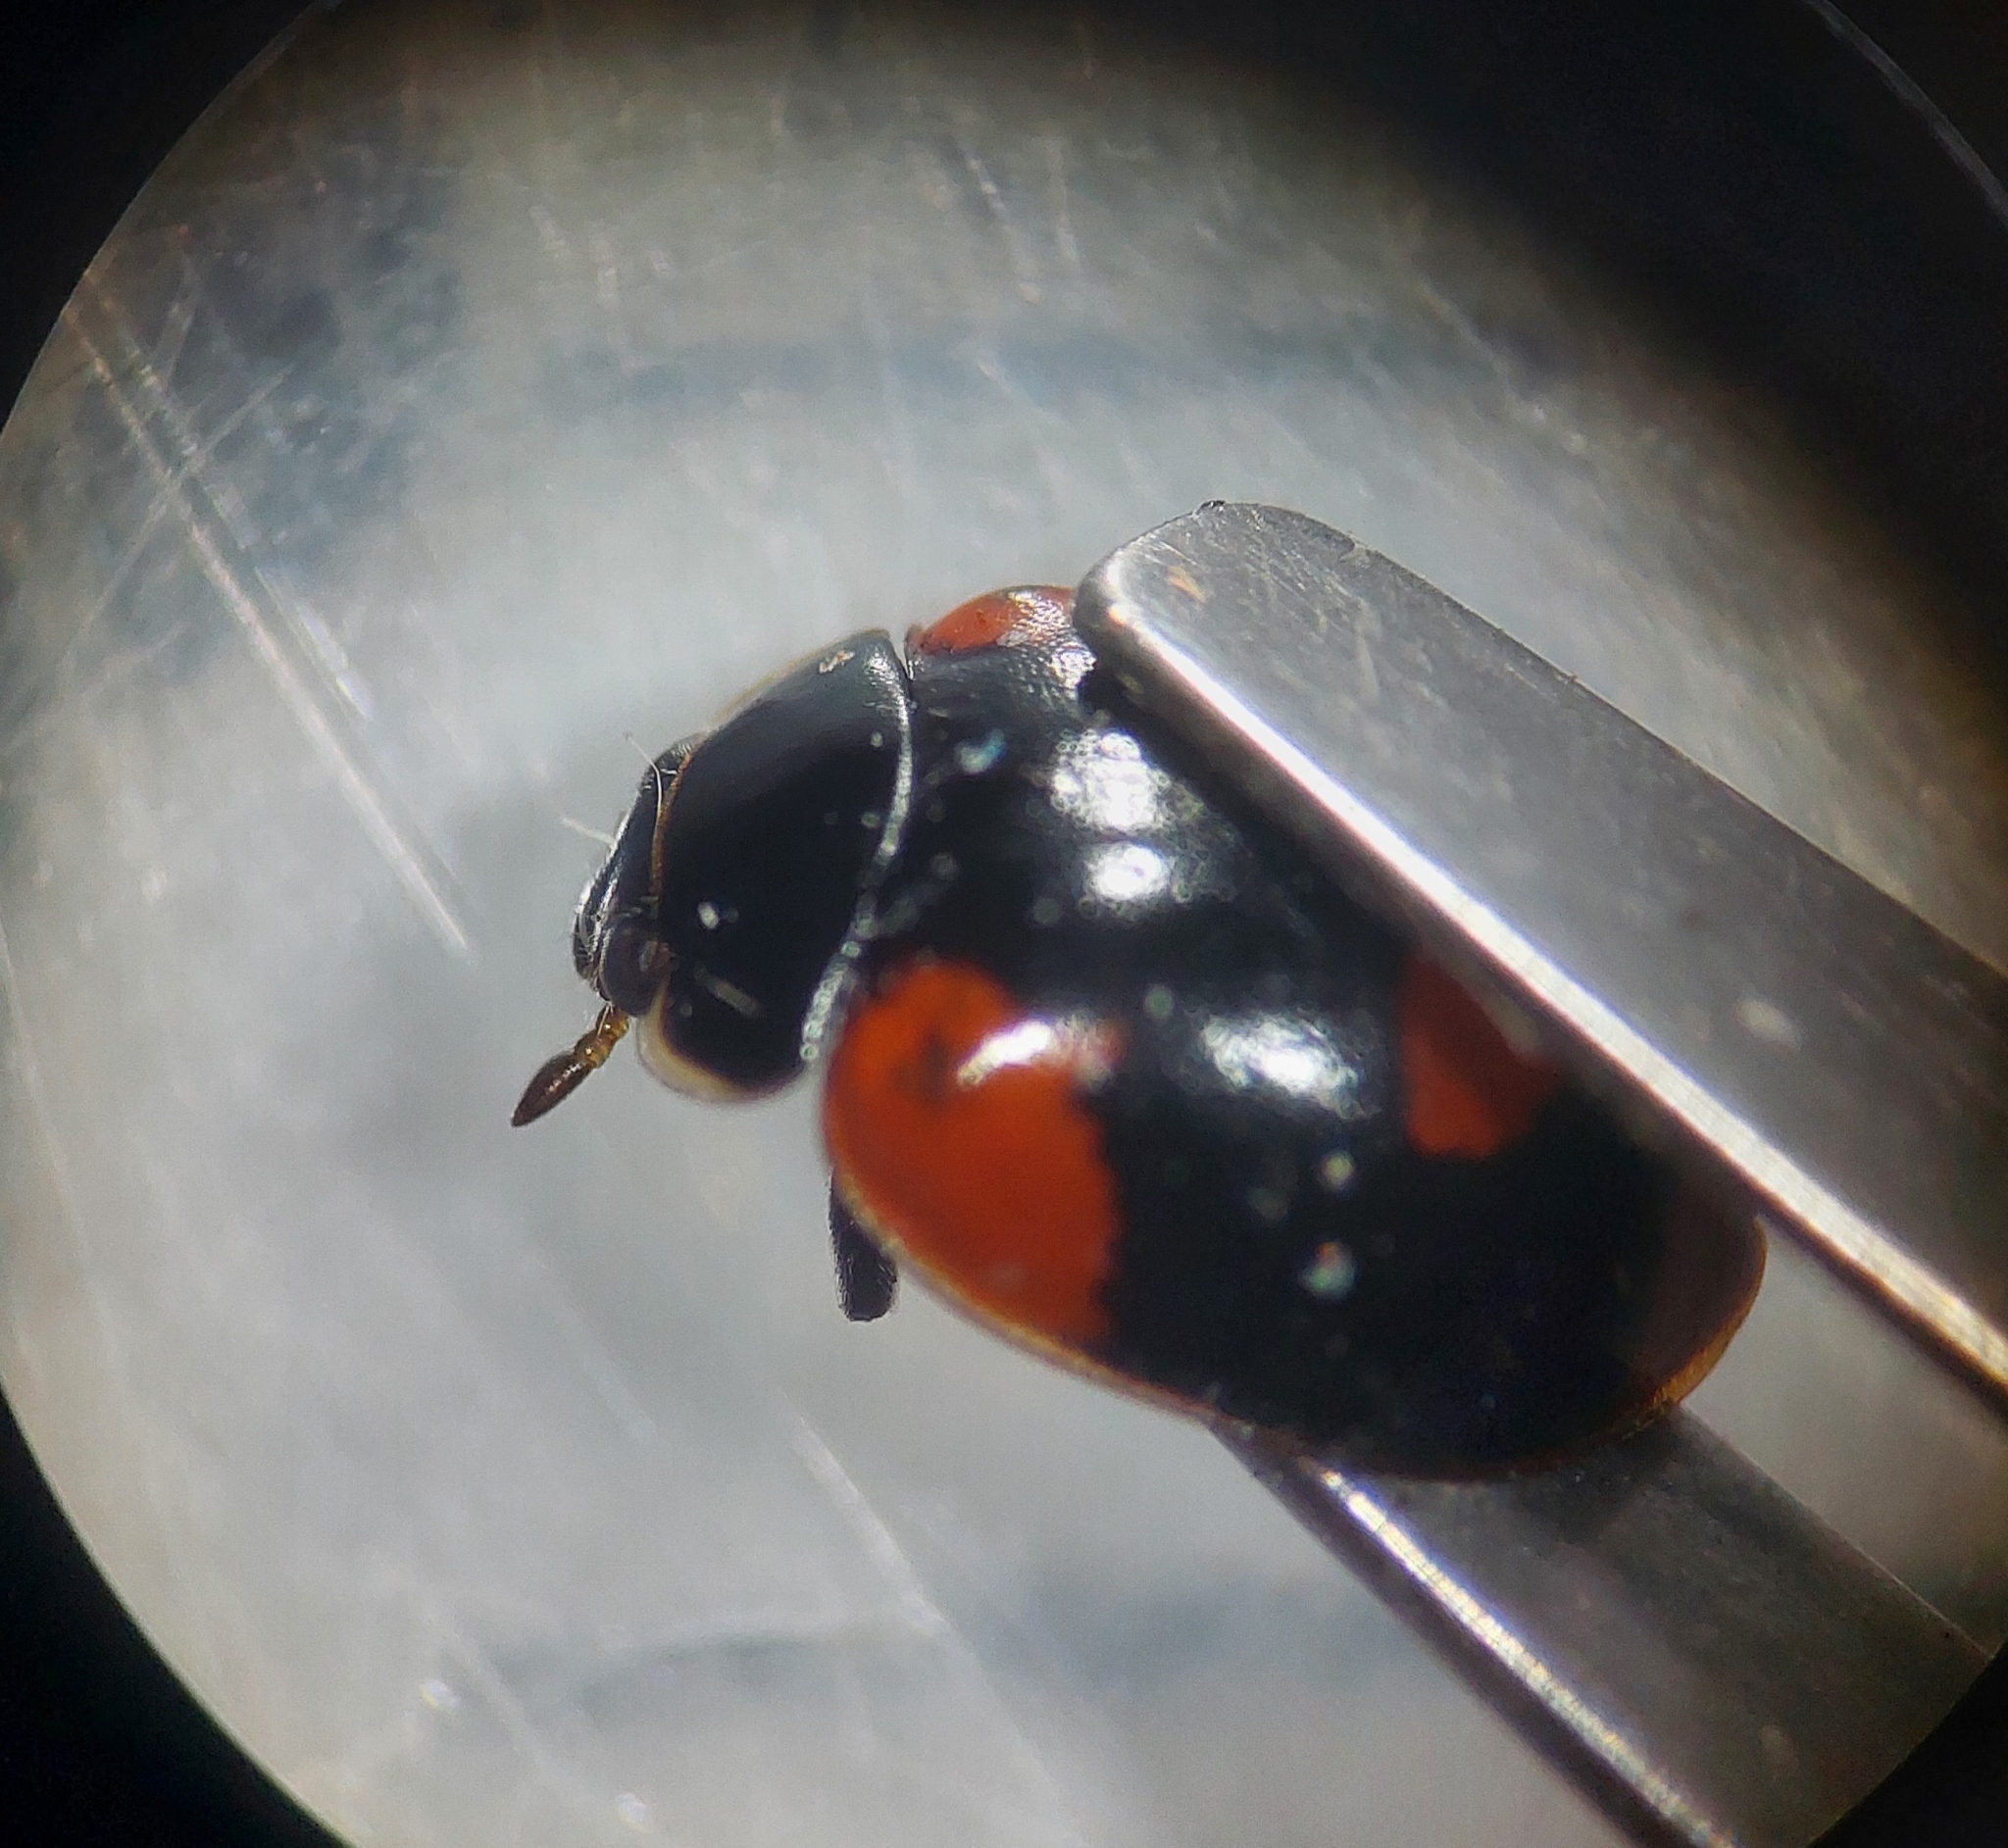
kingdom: Animalia
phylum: Arthropoda
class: Insecta
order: Coleoptera
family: Coccinellidae
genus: Adalia
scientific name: Adalia bipunctata
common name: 2-spot ladybird
